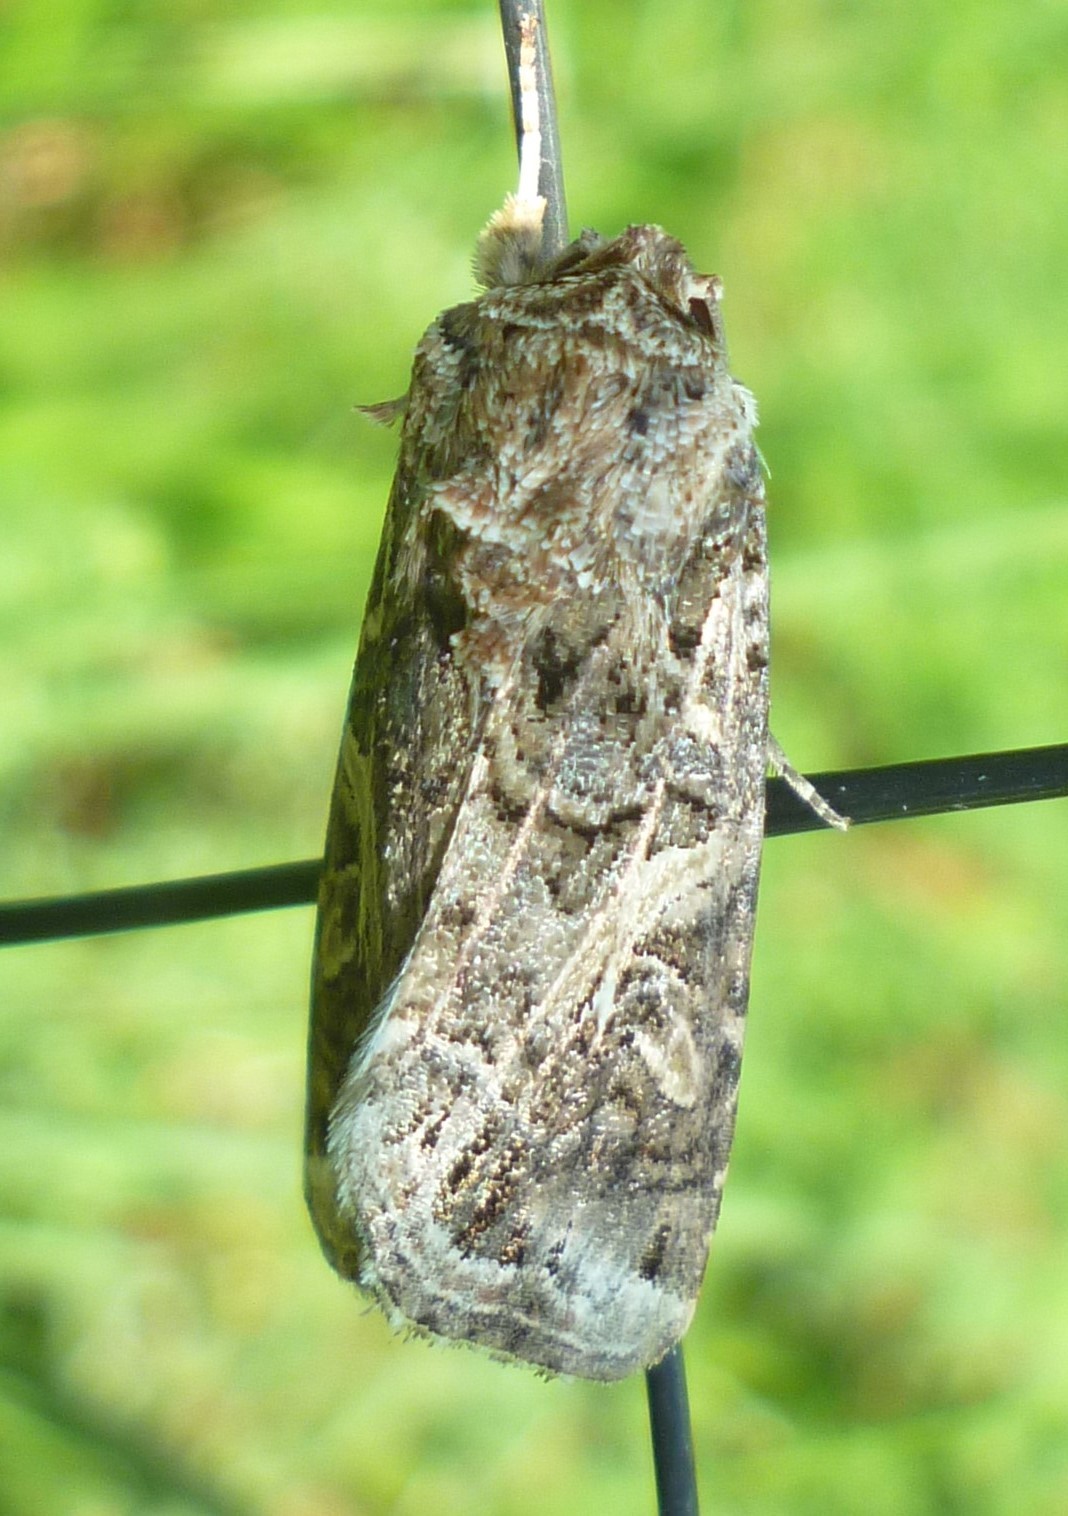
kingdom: Animalia
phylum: Arthropoda
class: Insecta
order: Lepidoptera
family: Noctuidae
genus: Spodoptera
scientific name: Spodoptera ornithogalli
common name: Yellow-striped armyworm
